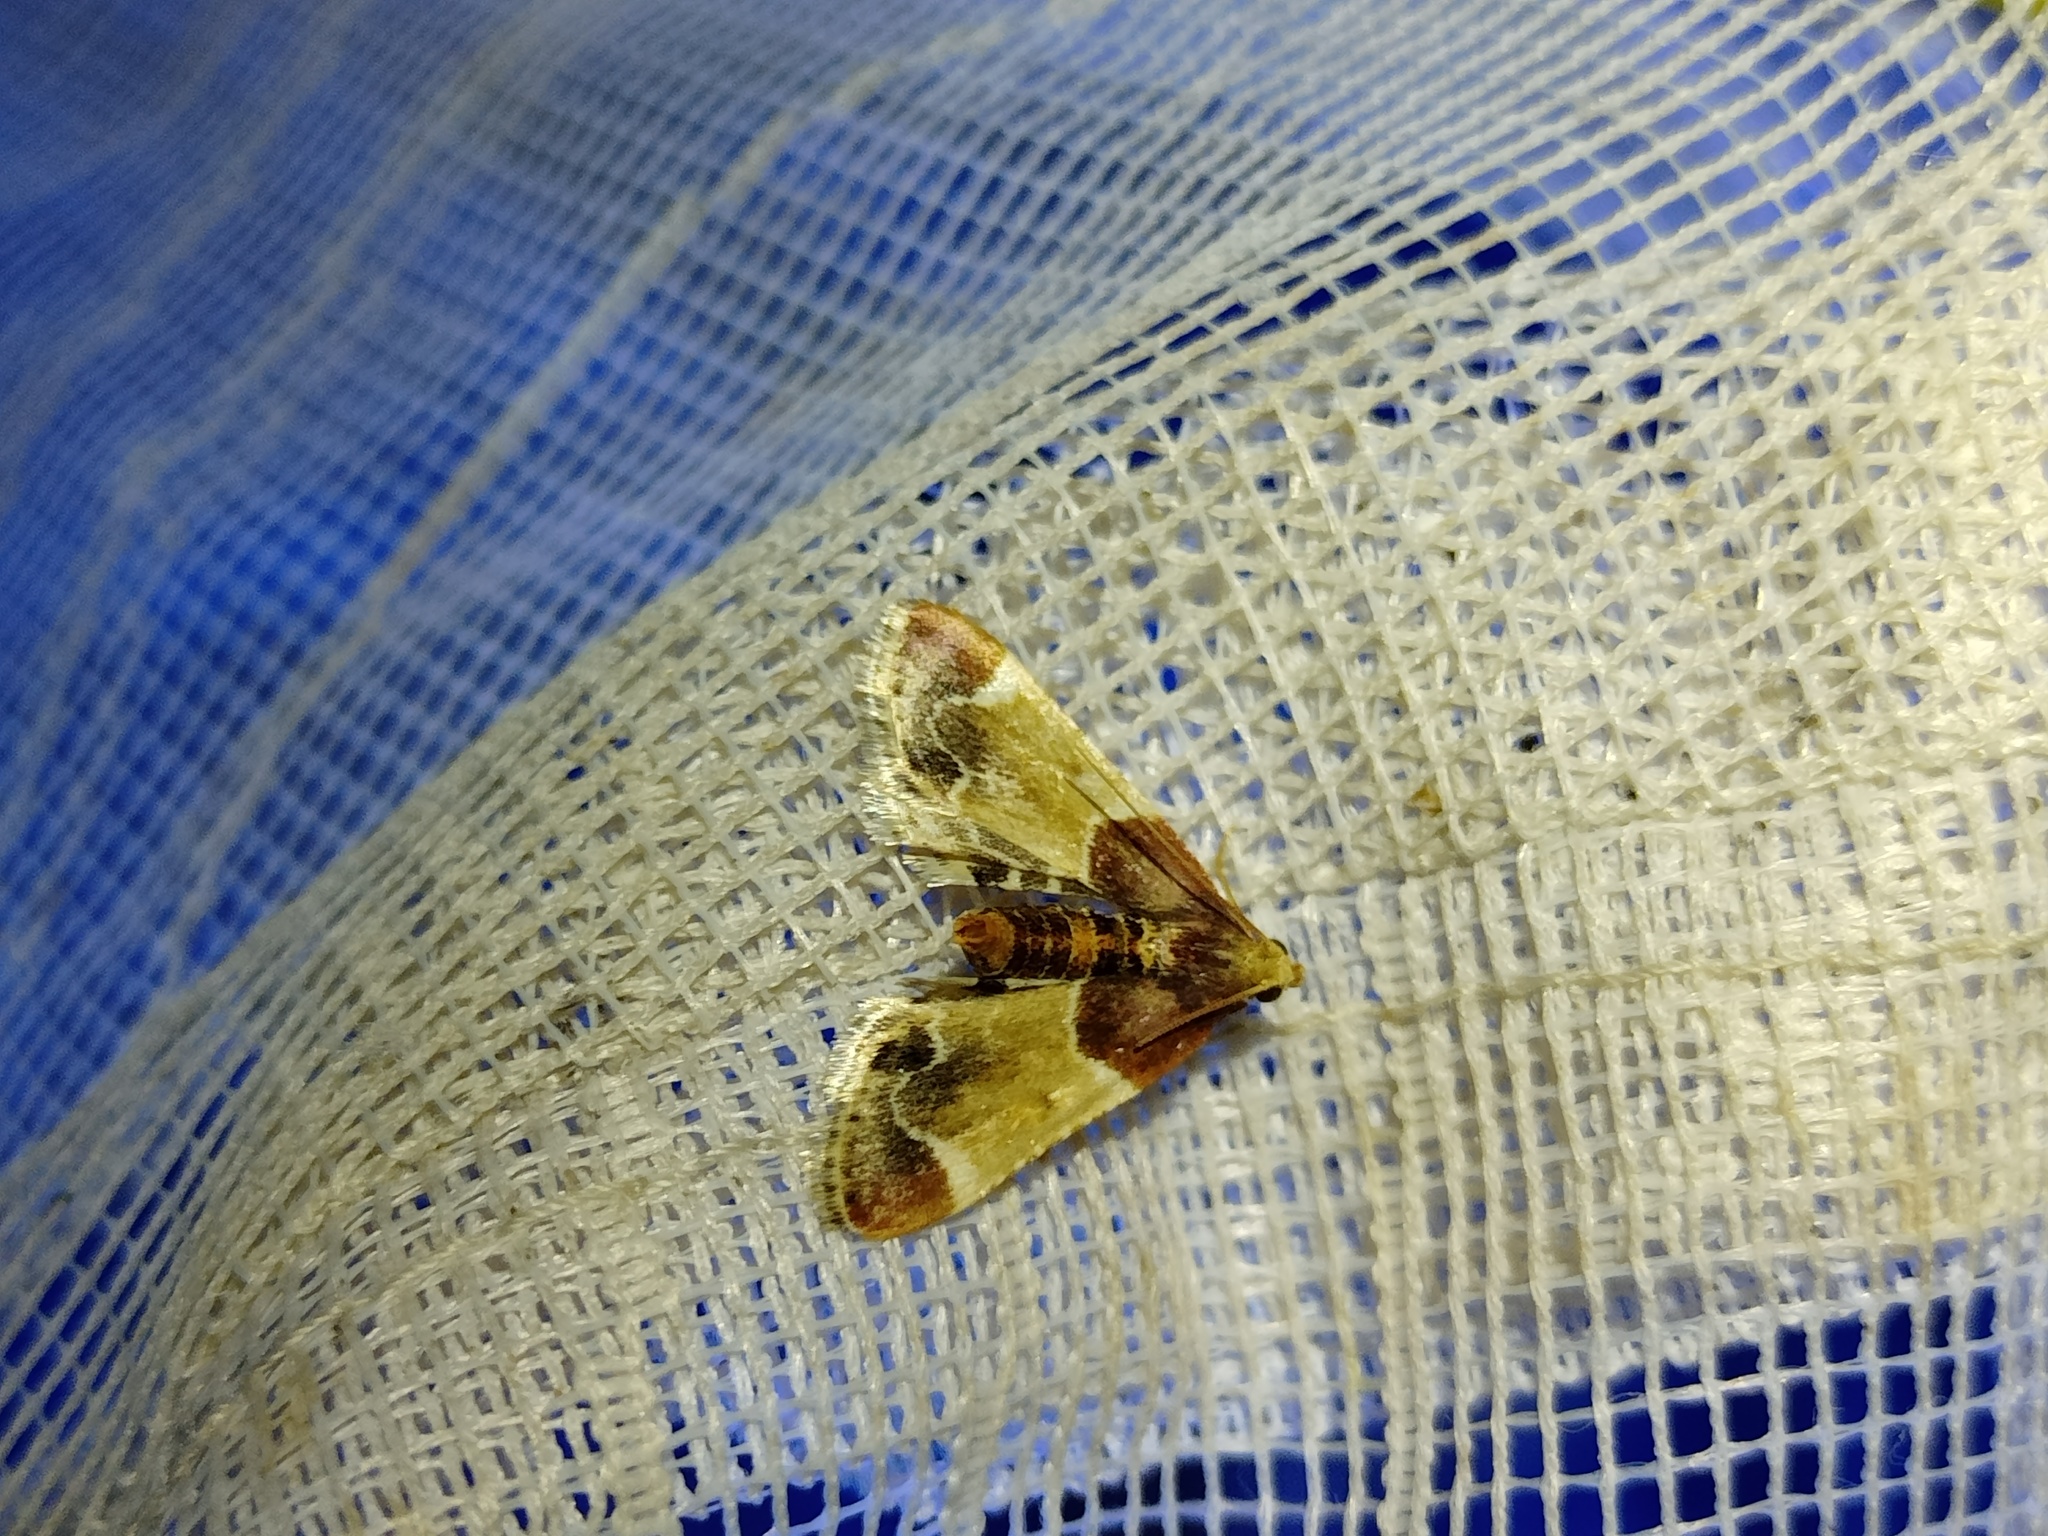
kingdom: Animalia
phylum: Arthropoda
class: Insecta
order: Lepidoptera
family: Pyralidae
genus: Pyralis
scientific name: Pyralis farinalis
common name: Meal moth
